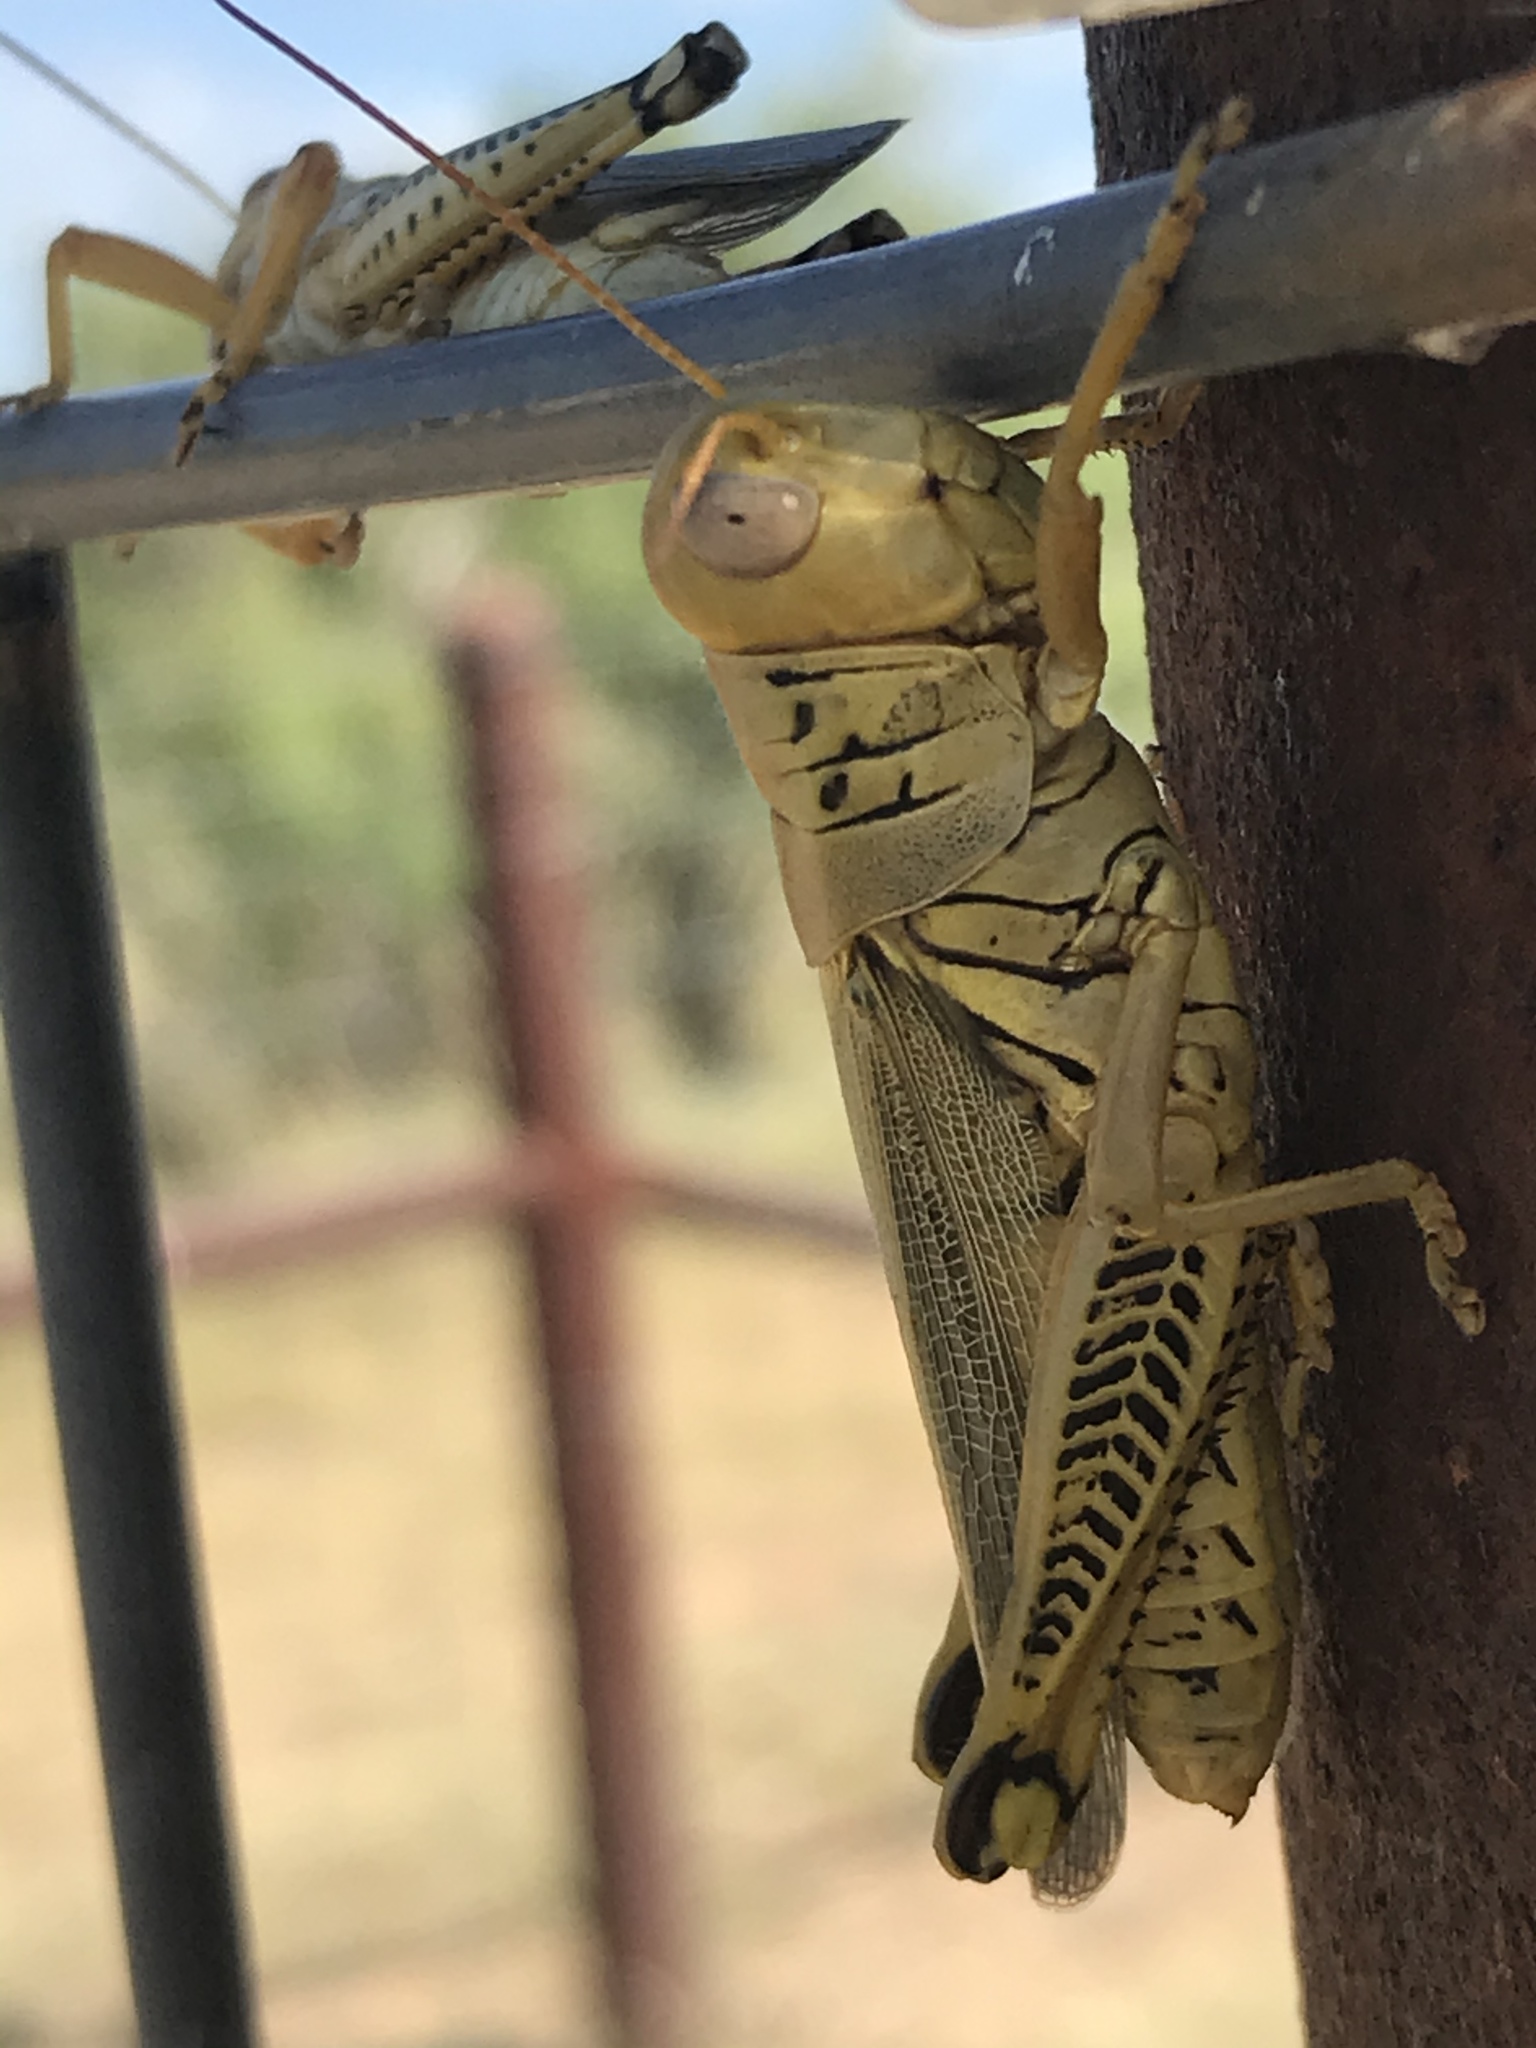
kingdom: Animalia
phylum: Arthropoda
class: Insecta
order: Orthoptera
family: Acrididae
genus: Melanoplus
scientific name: Melanoplus differentialis
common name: Differential grasshopper
